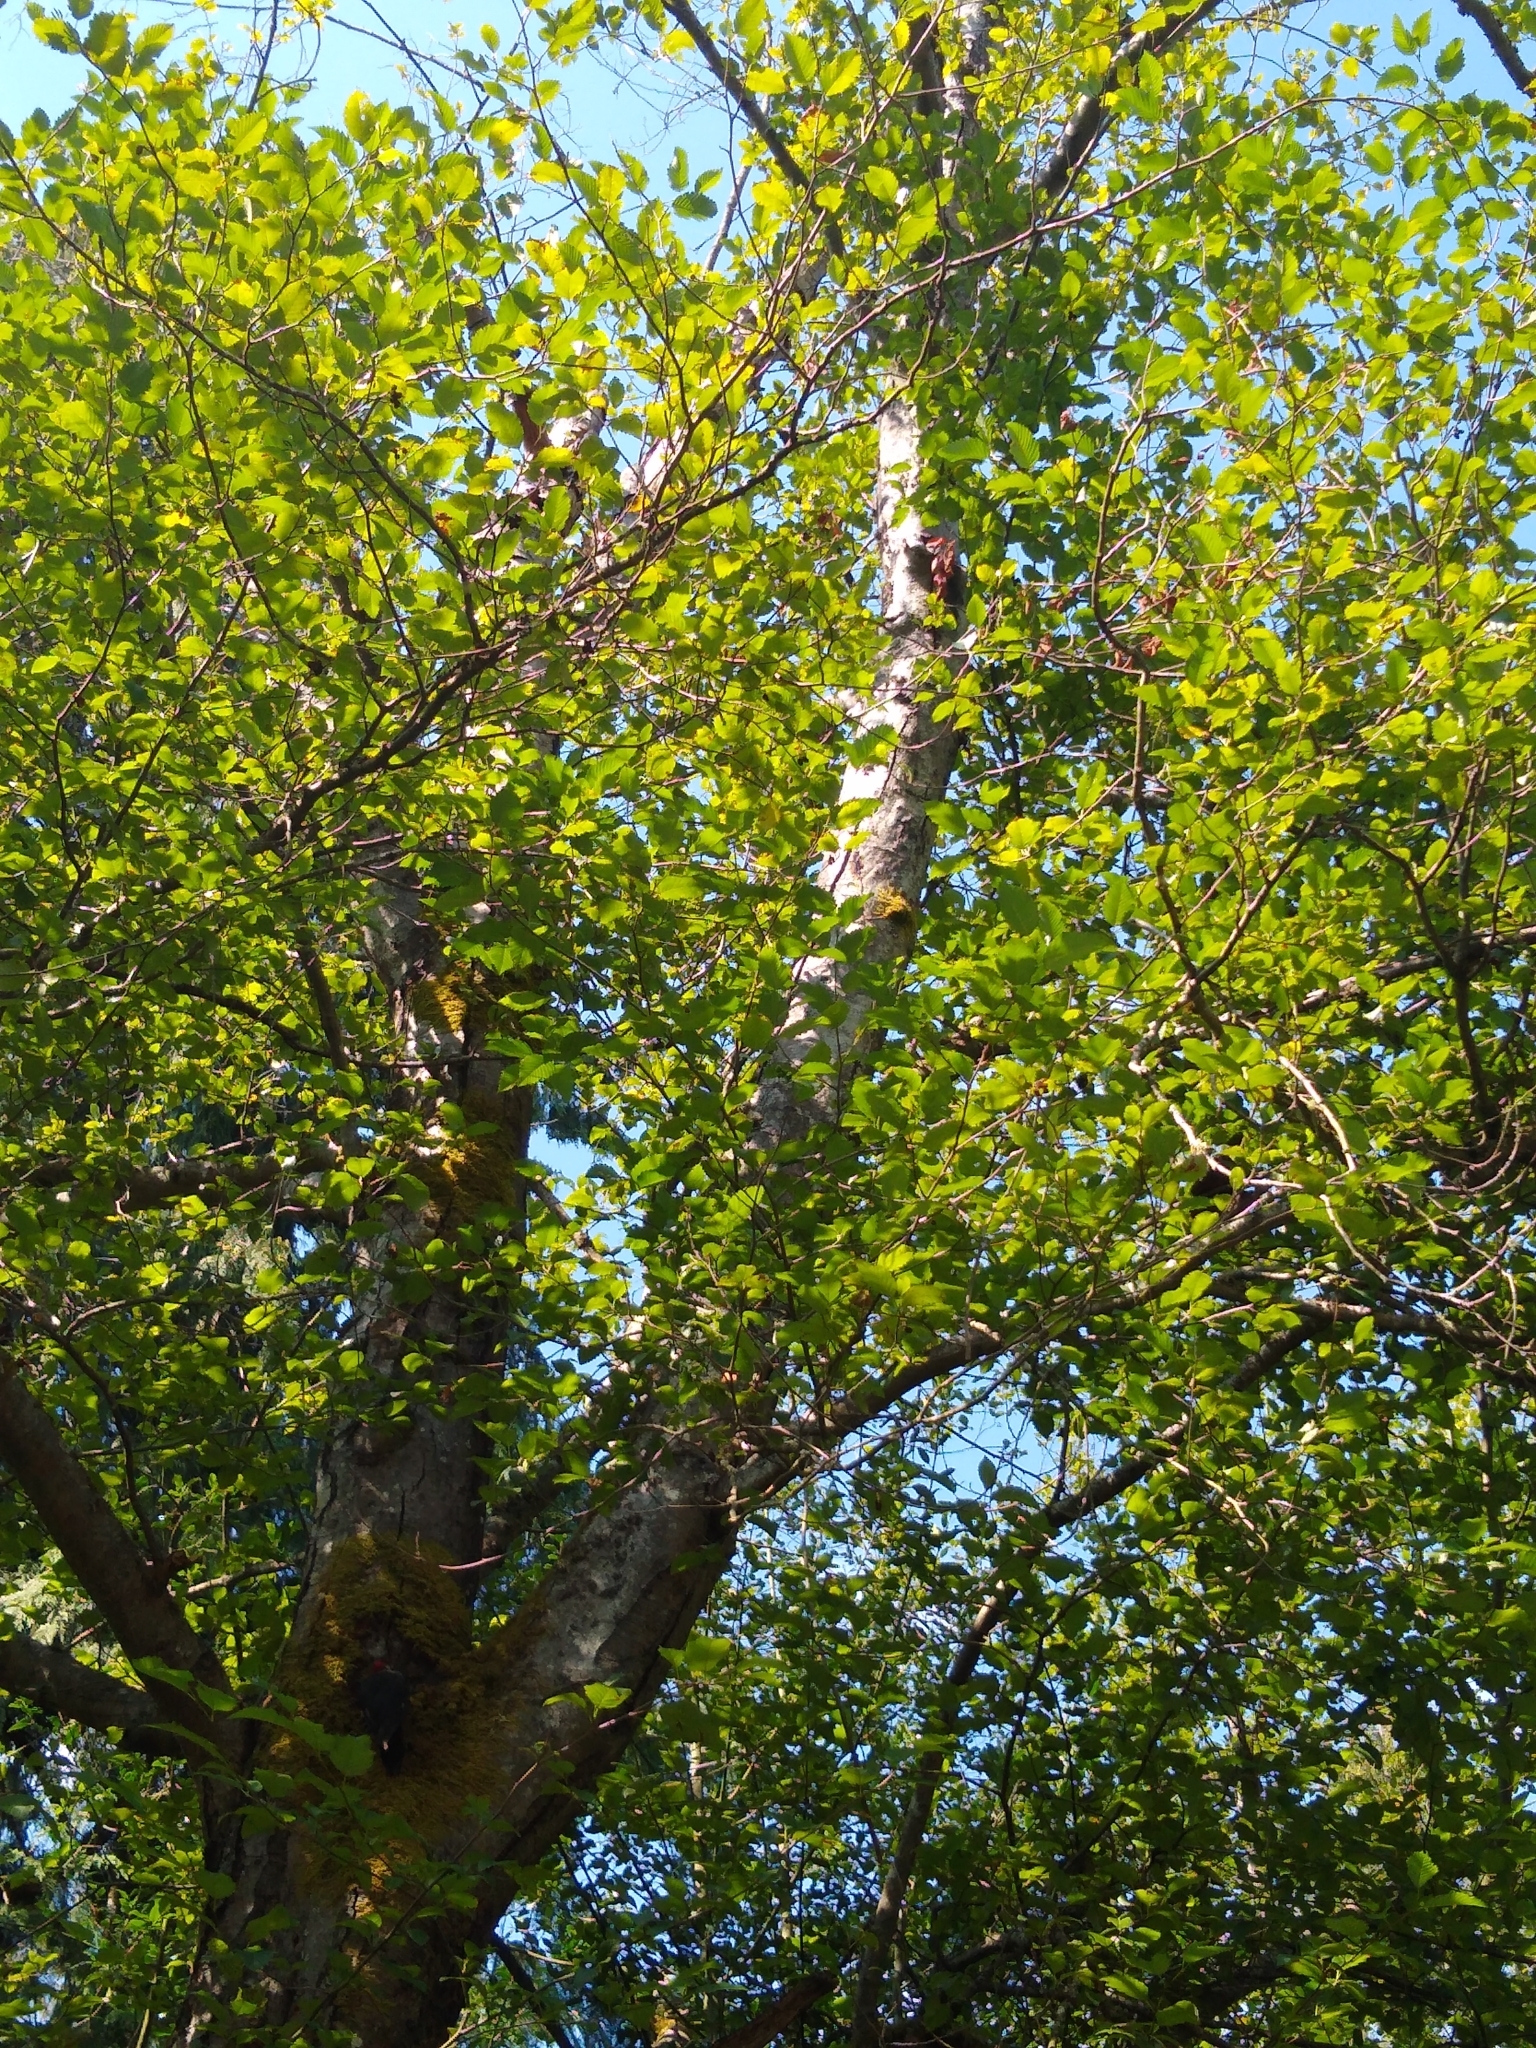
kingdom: Plantae
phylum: Tracheophyta
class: Magnoliopsida
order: Fagales
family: Betulaceae
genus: Alnus
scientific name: Alnus rubra
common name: Red alder
